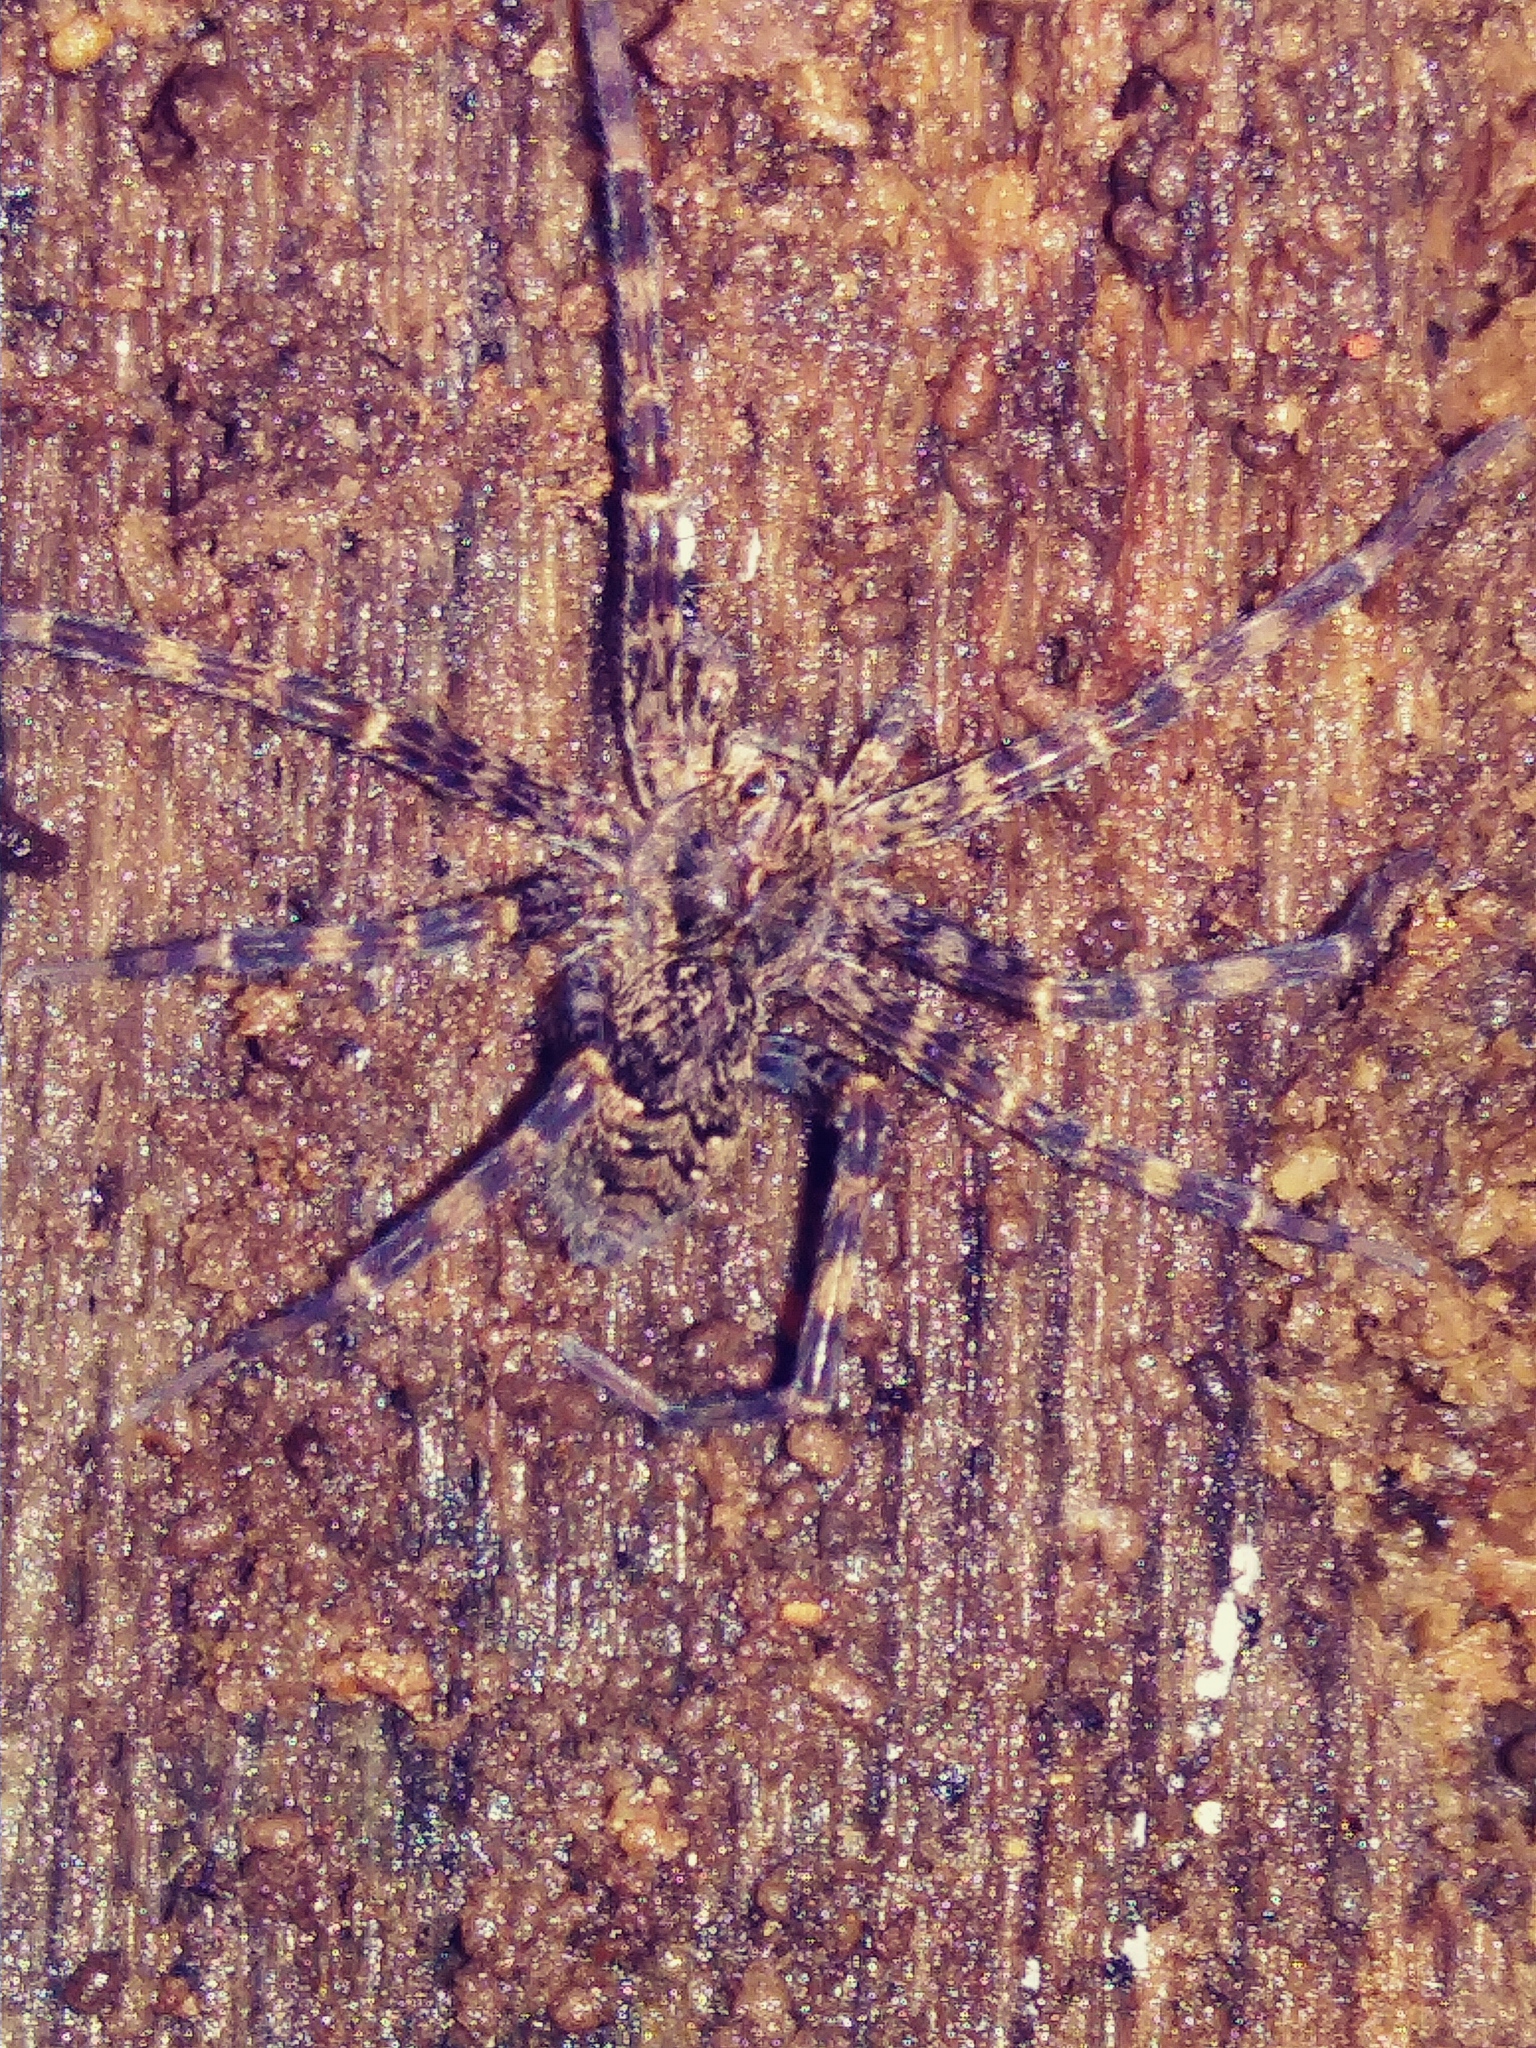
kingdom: Animalia
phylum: Arthropoda
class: Arachnida
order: Araneae
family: Pisauridae
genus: Dolomedes
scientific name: Dolomedes tenebrosus
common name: Dark fishing spider
